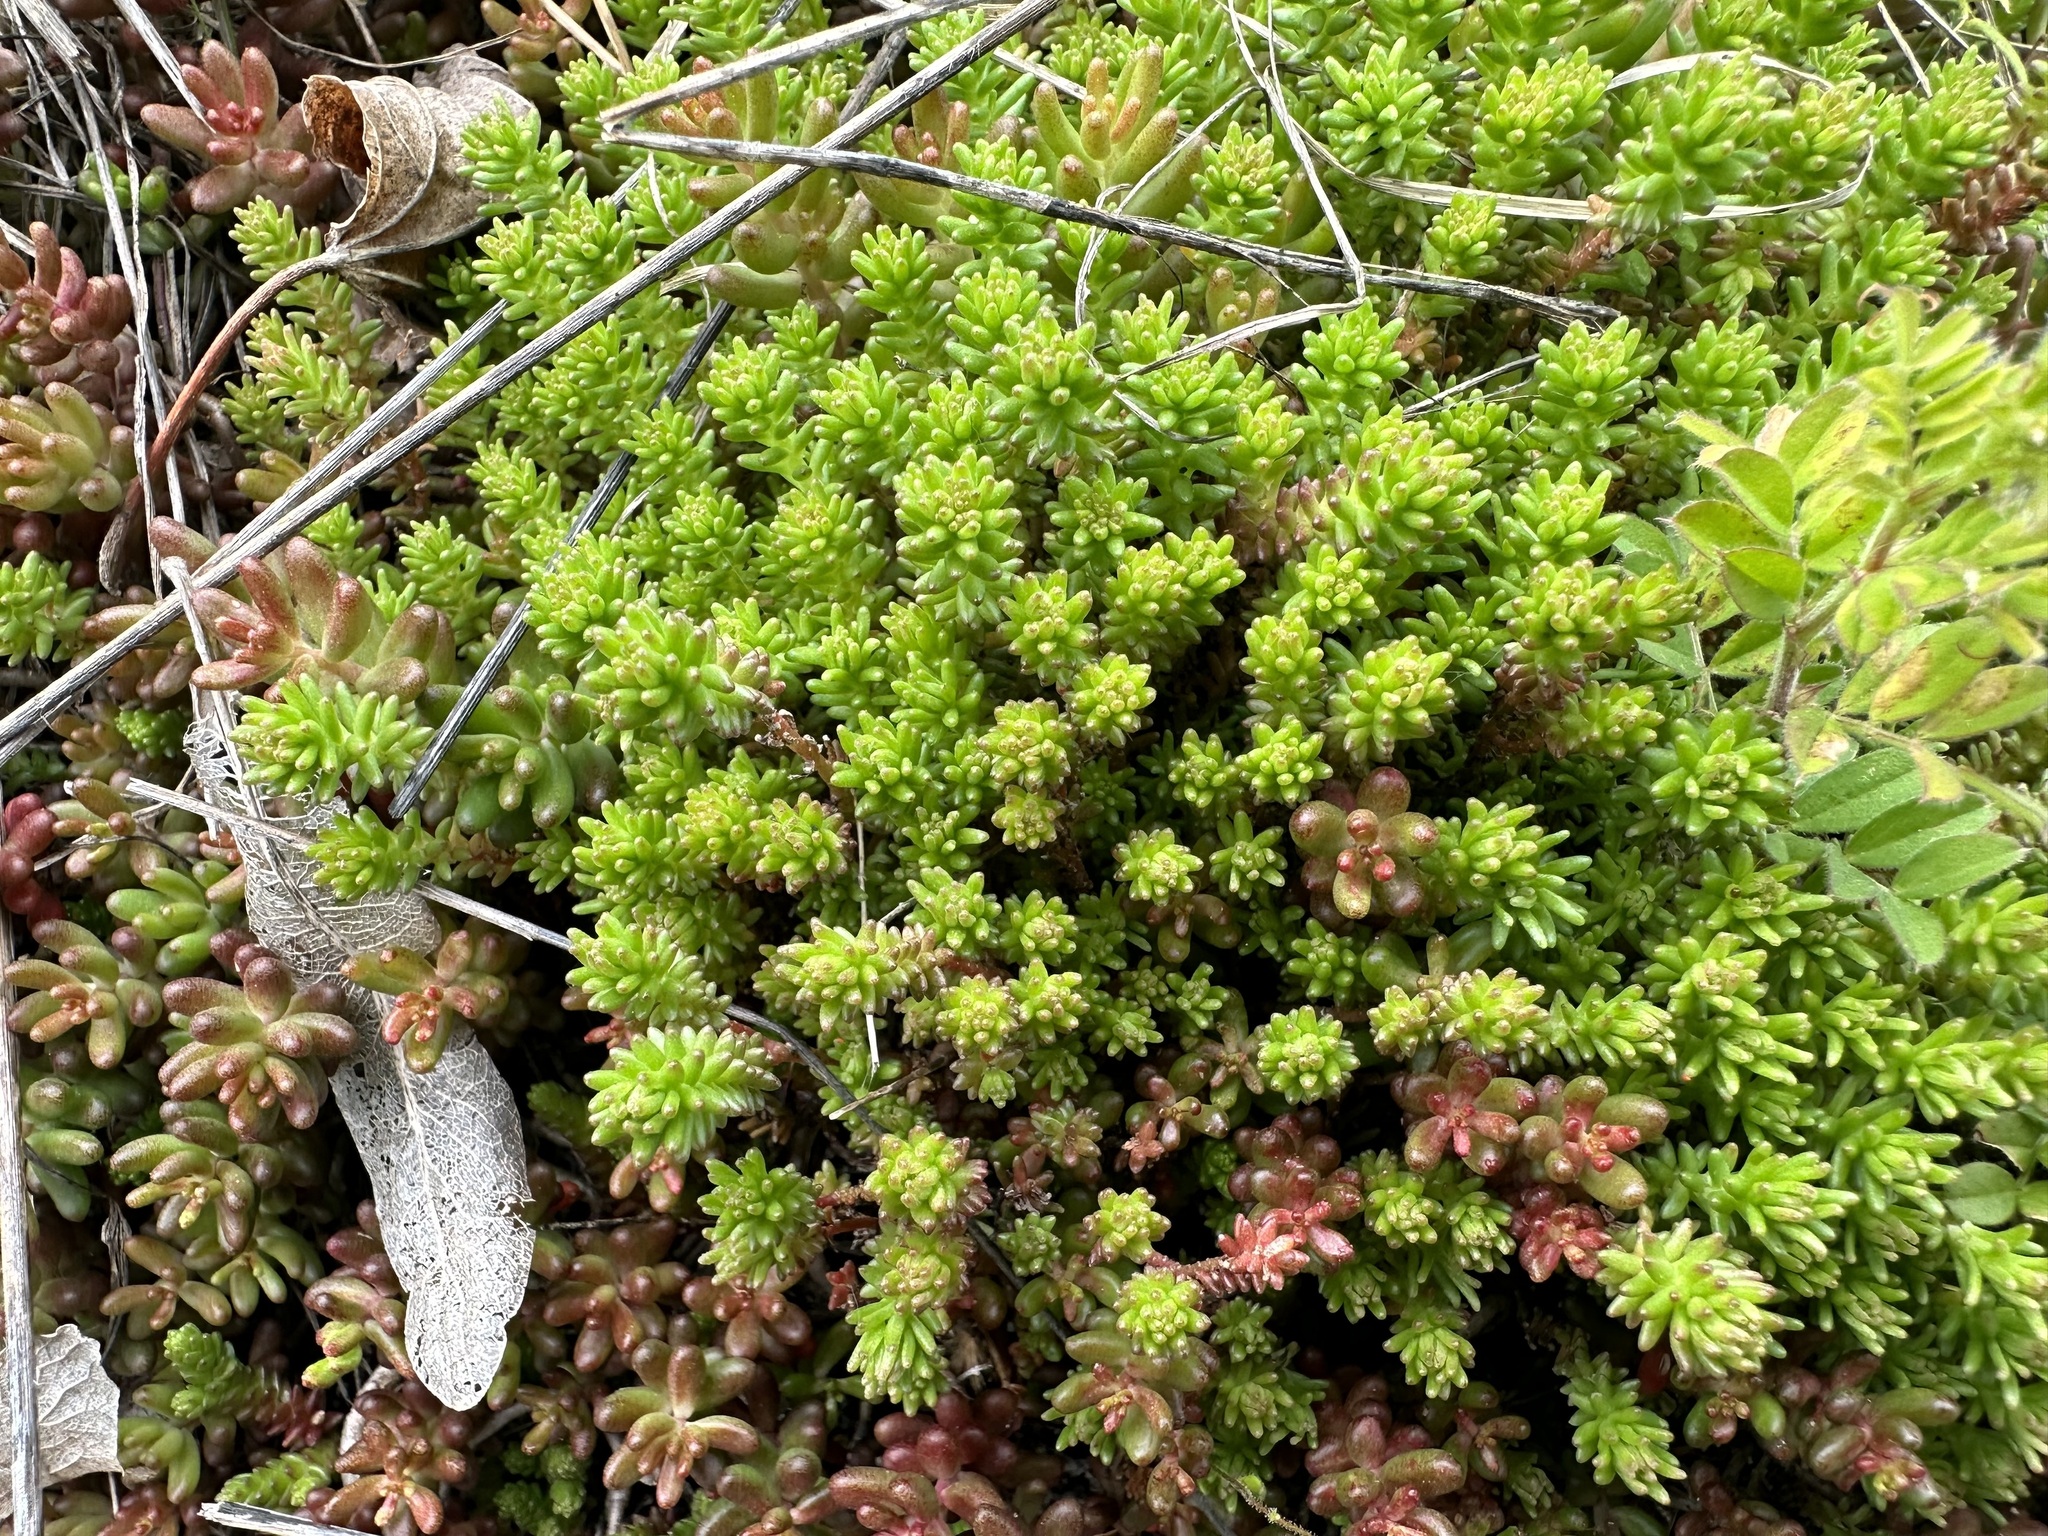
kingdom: Plantae
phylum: Tracheophyta
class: Magnoliopsida
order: Saxifragales
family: Crassulaceae
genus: Sedum
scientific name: Sedum sexangulare
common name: Tasteless stonecrop
